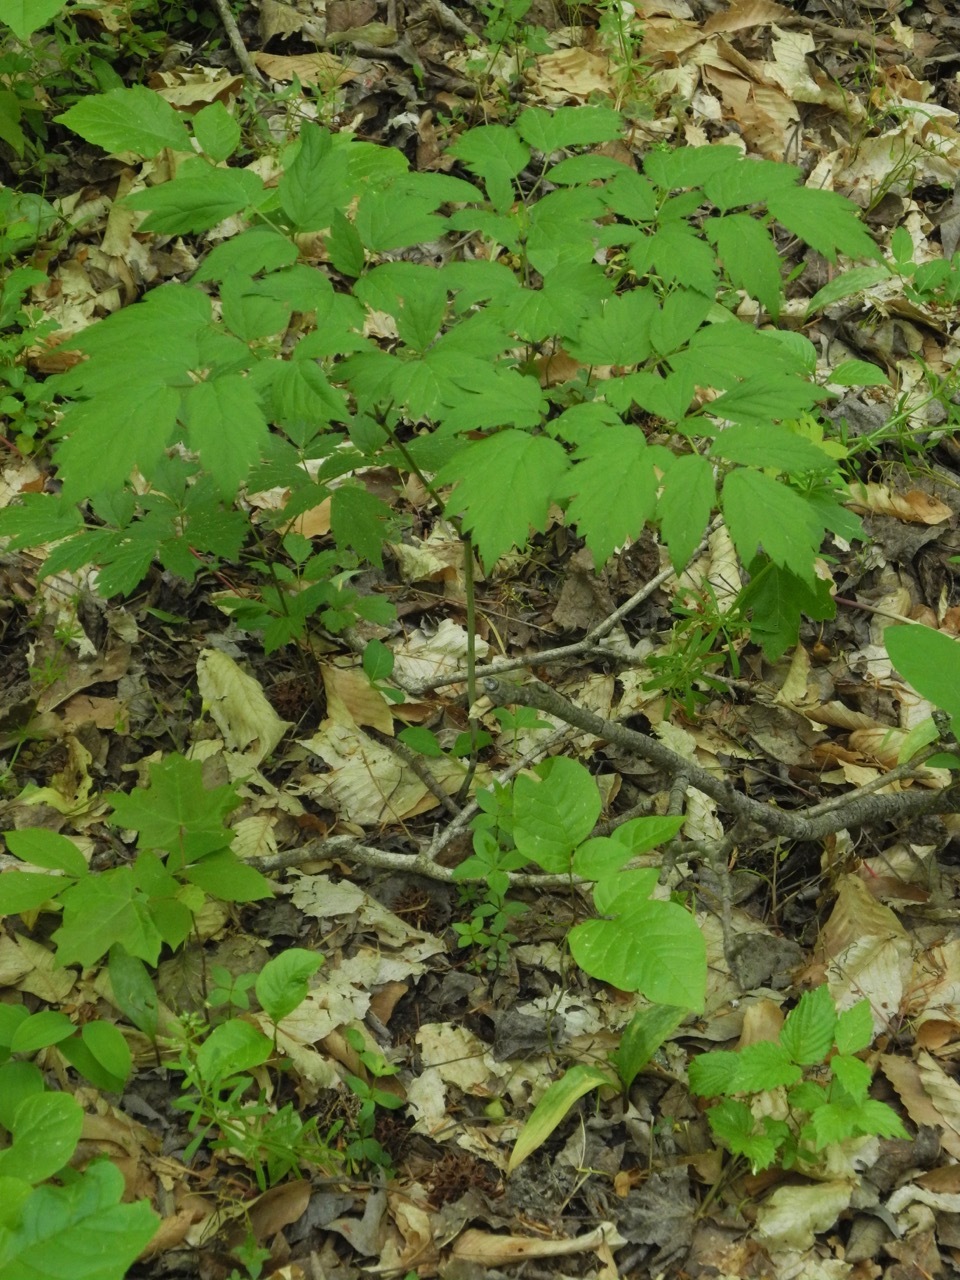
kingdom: Plantae
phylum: Tracheophyta
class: Magnoliopsida
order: Ranunculales
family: Ranunculaceae
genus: Actaea
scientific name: Actaea racemosa
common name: Black cohosh
